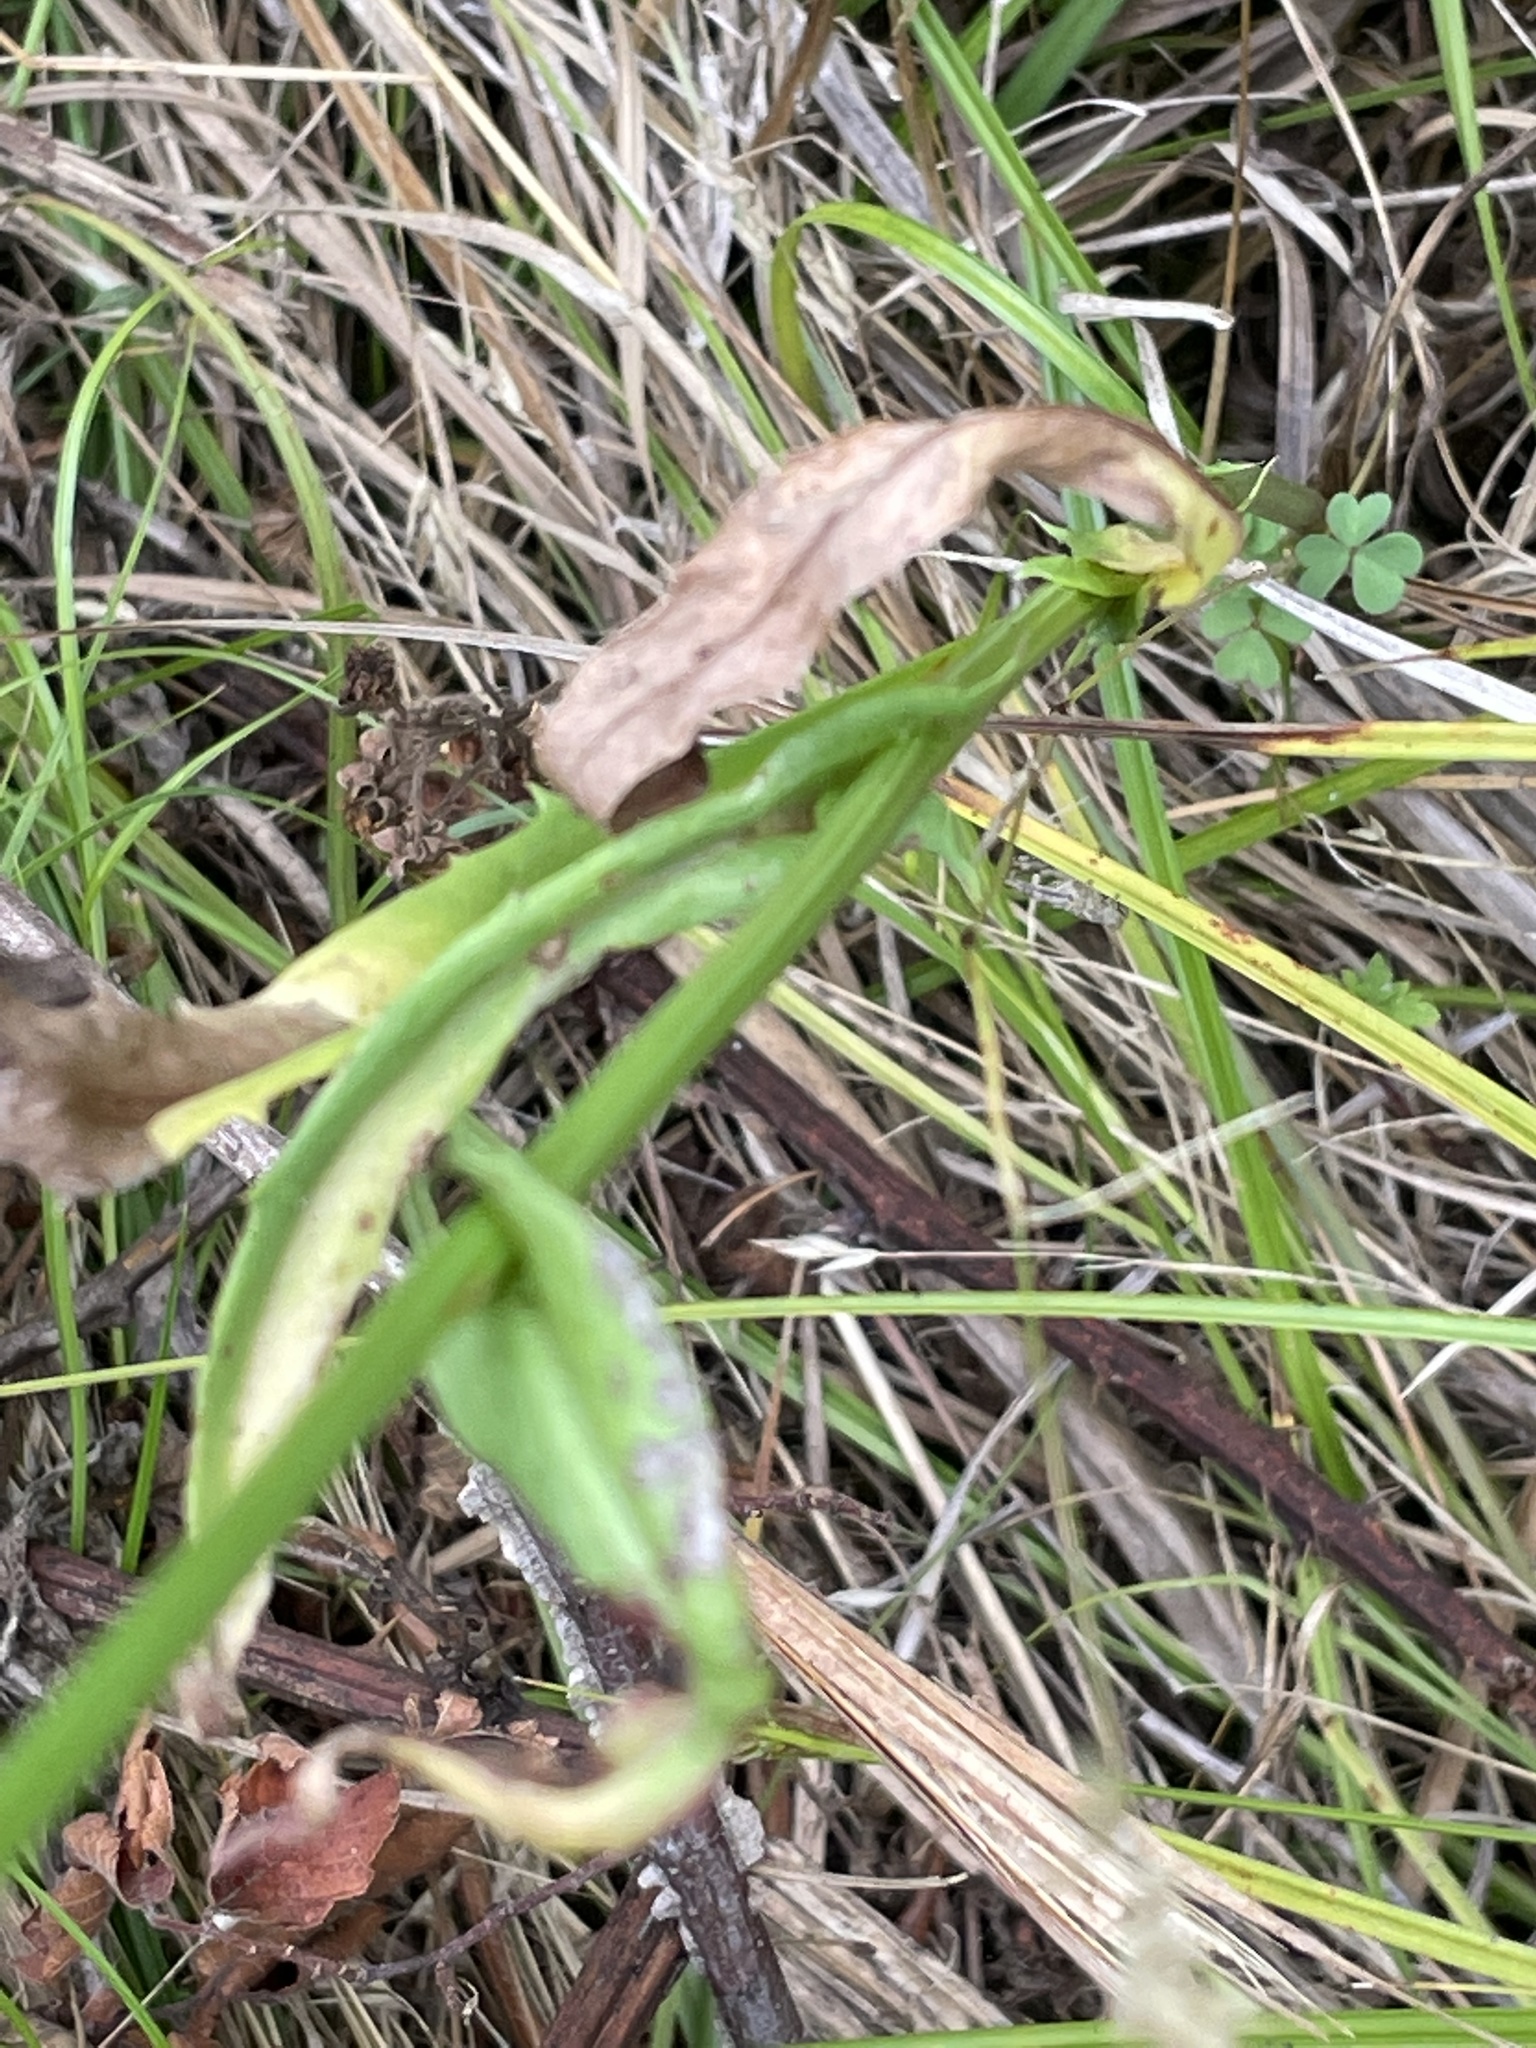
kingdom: Plantae
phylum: Tracheophyta
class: Magnoliopsida
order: Asterales
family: Asteraceae
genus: Pyrrhopappus
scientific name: Pyrrhopappus carolinianus
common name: Carolina desert-chicory
